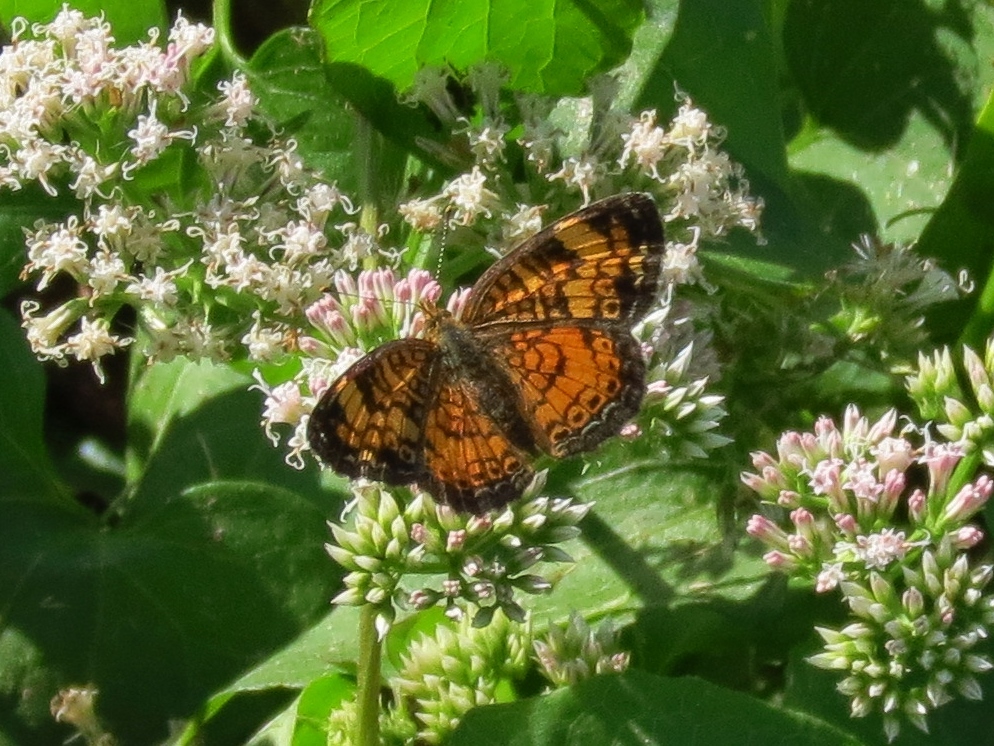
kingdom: Animalia
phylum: Arthropoda
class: Insecta
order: Lepidoptera
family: Nymphalidae
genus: Phyciodes
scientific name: Phyciodes tharos
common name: Pearl crescent
